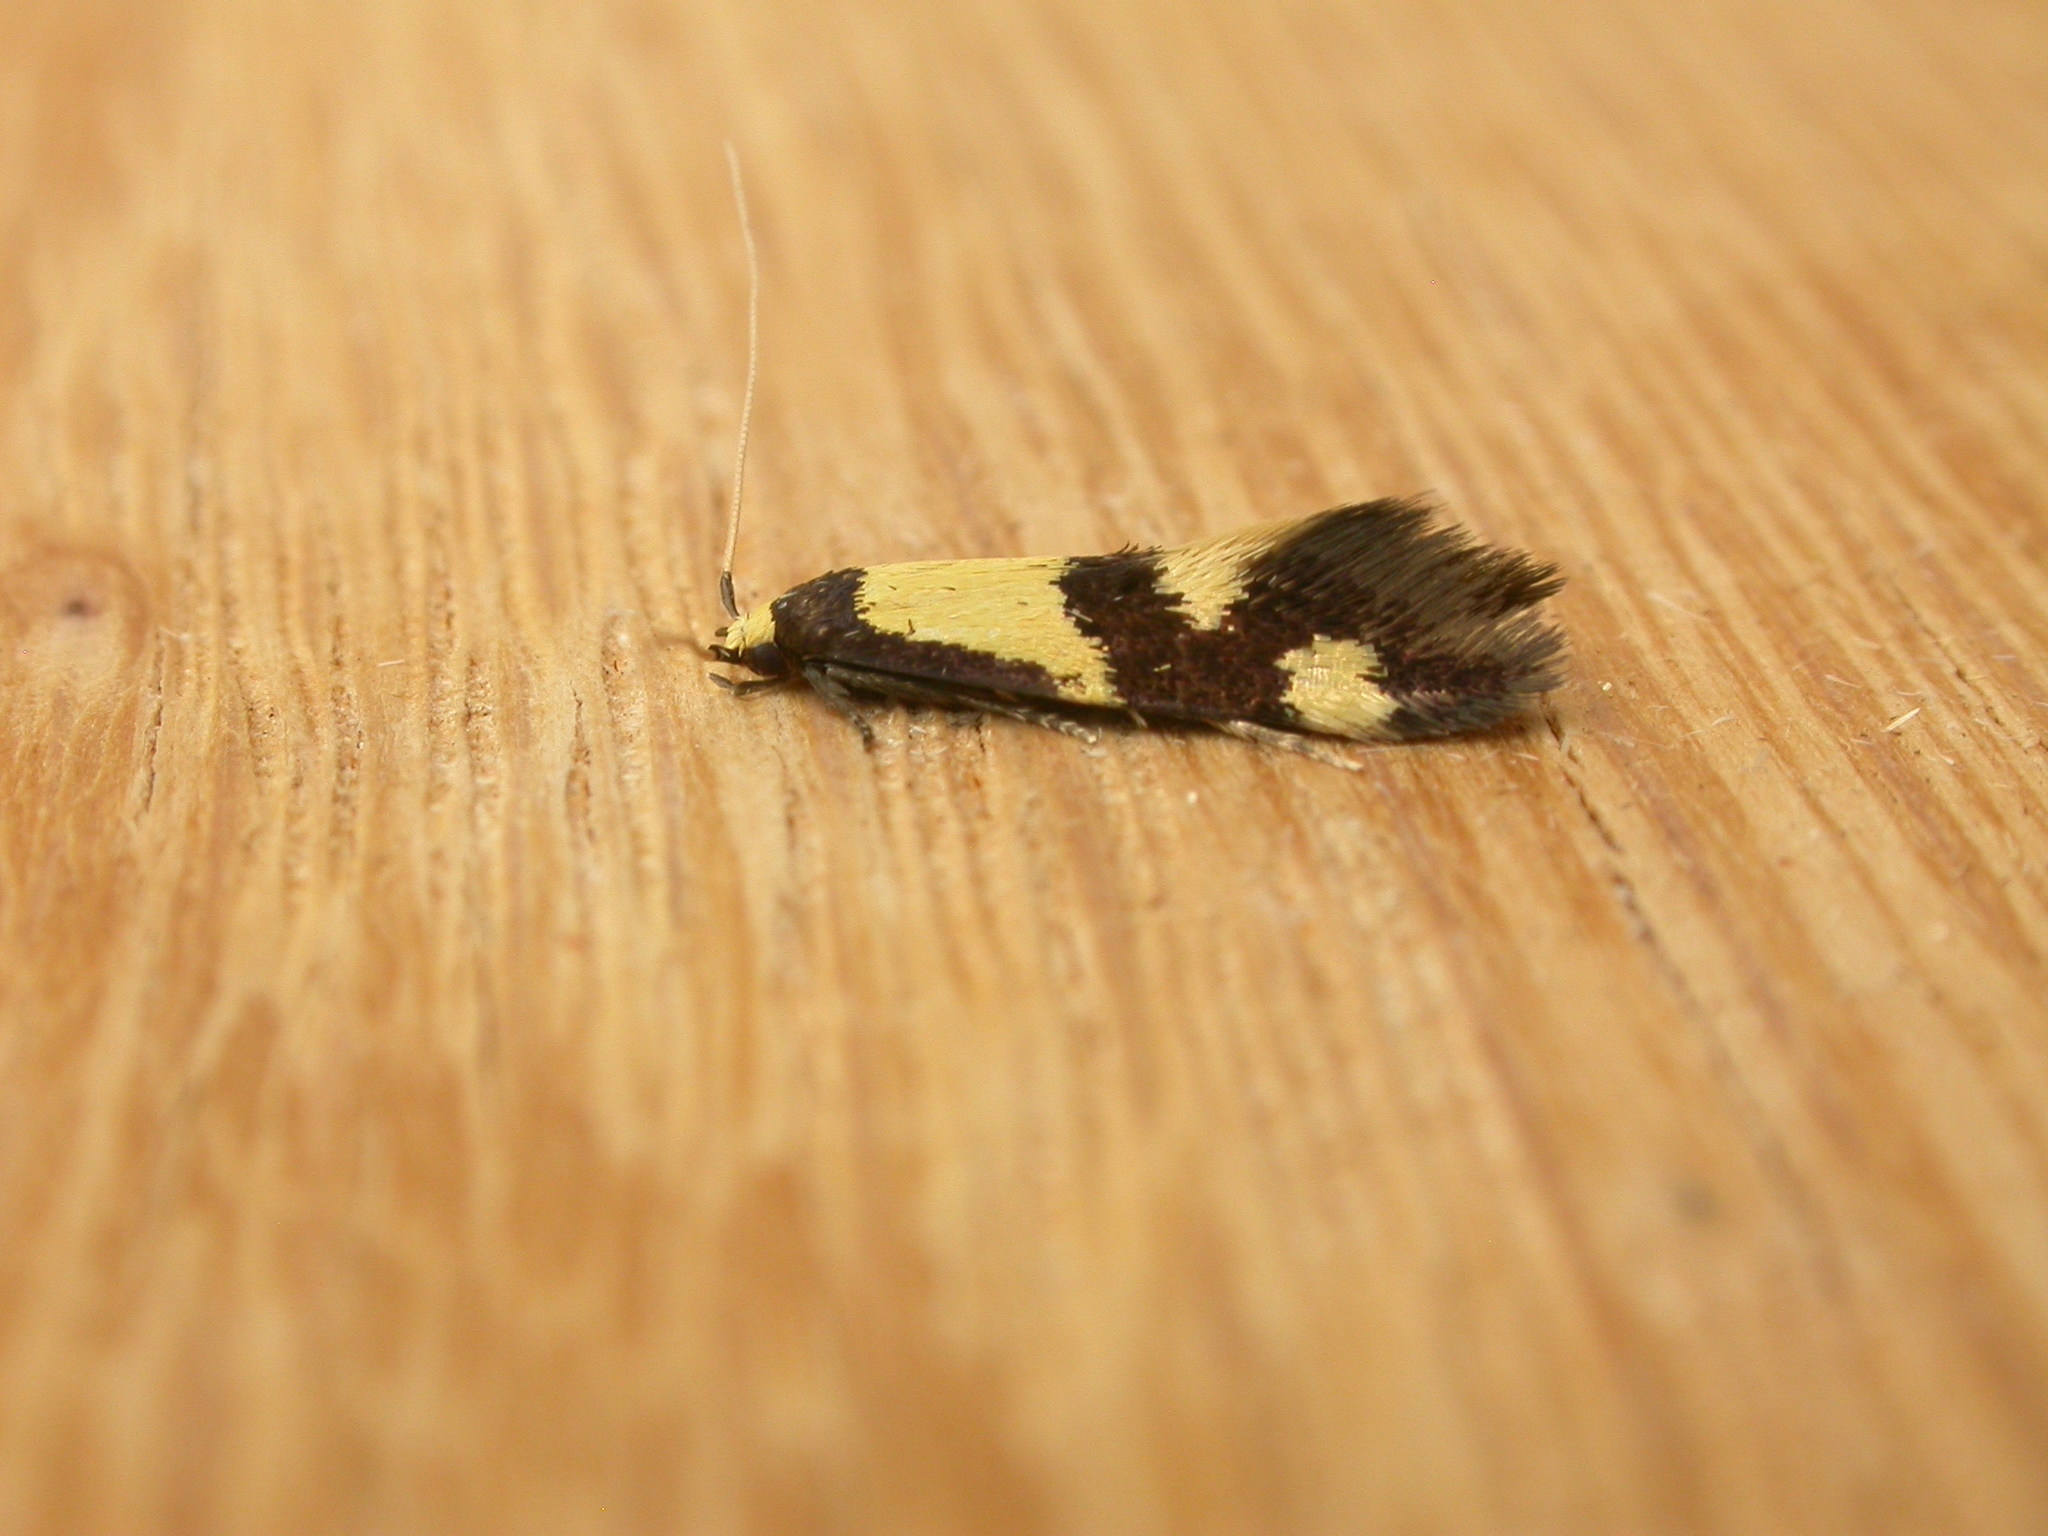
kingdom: Animalia
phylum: Arthropoda
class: Insecta
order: Lepidoptera
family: Tineidae
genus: Opogona
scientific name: Opogona comptella
